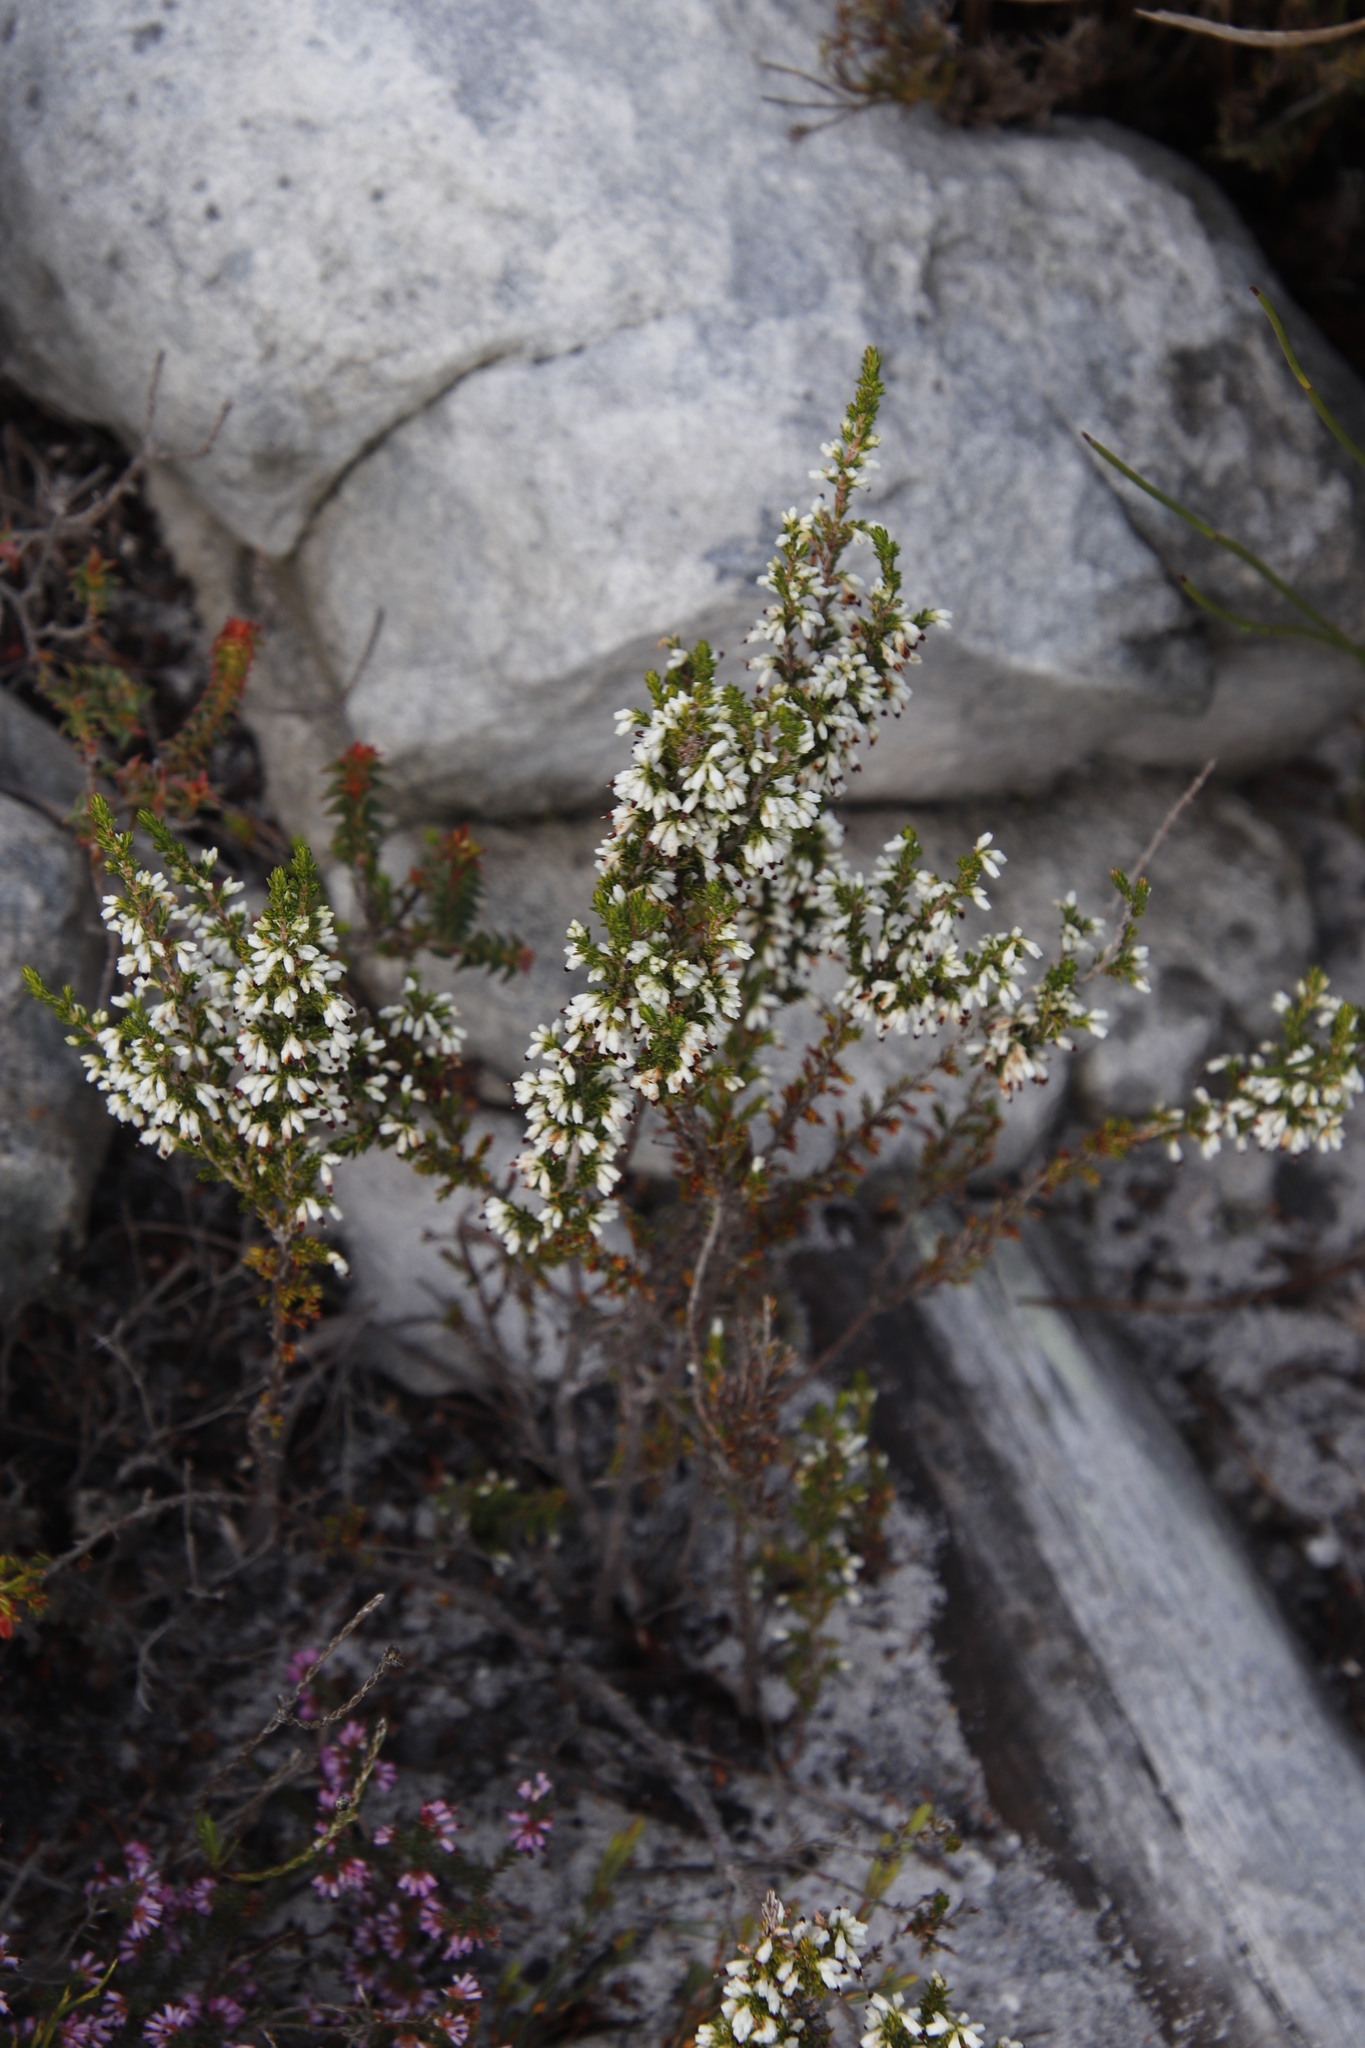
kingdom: Plantae
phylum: Tracheophyta
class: Magnoliopsida
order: Ericales
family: Ericaceae
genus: Erica
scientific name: Erica imbricata
